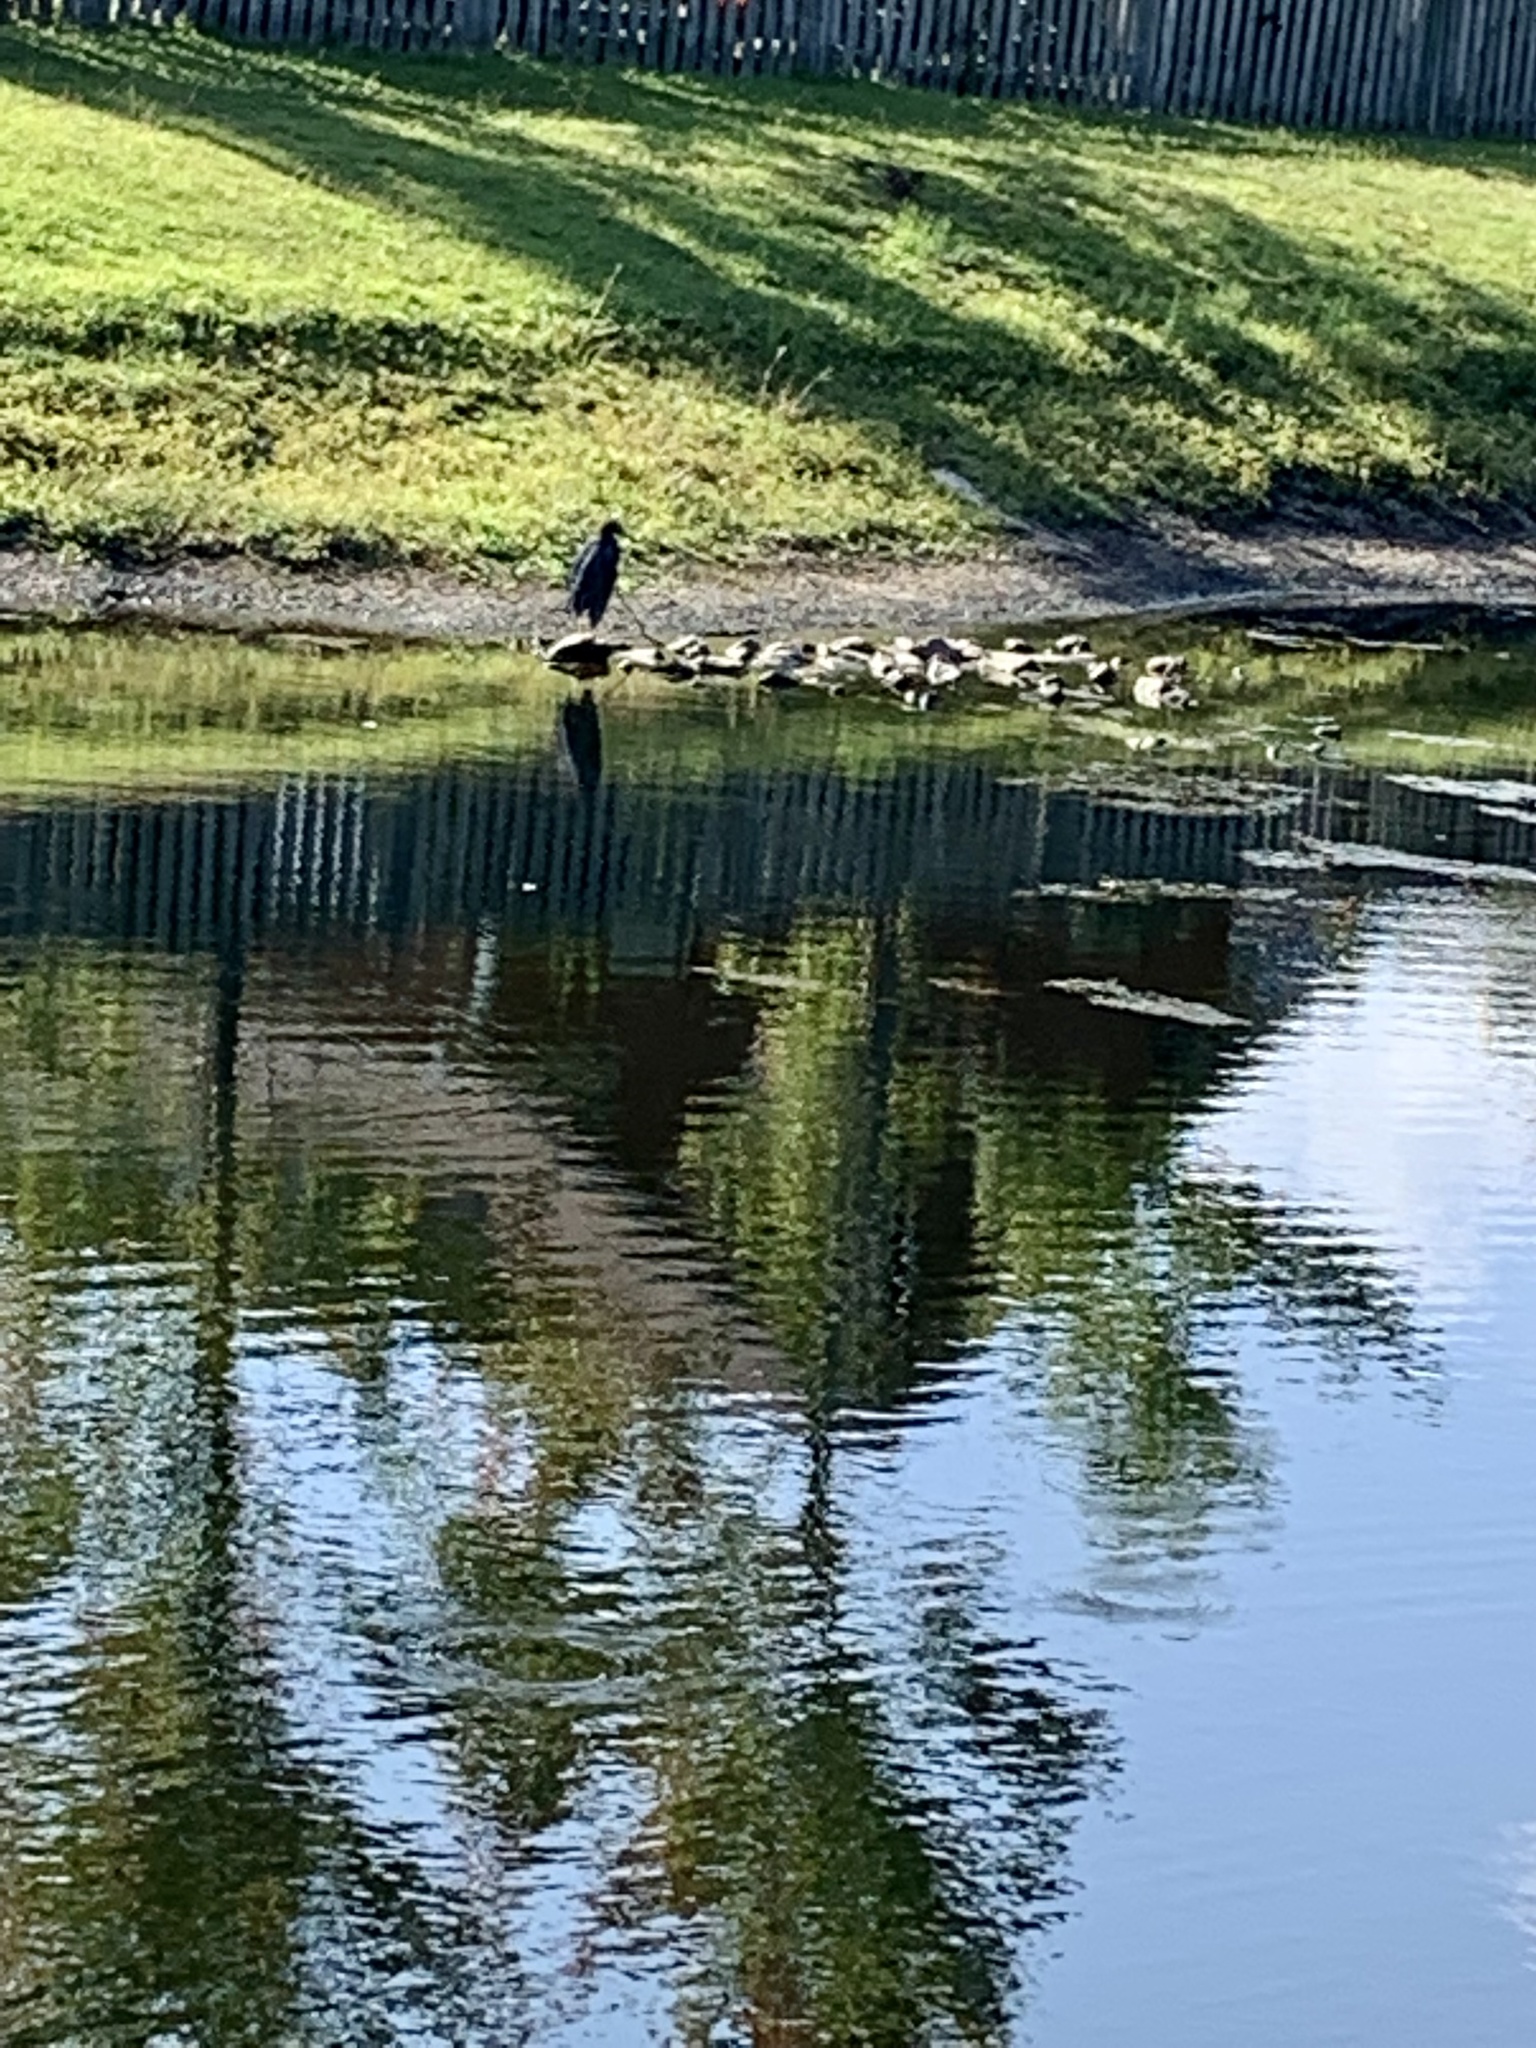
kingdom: Animalia
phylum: Chordata
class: Aves
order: Pelecaniformes
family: Ardeidae
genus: Egretta
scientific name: Egretta caerulea
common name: Little blue heron
